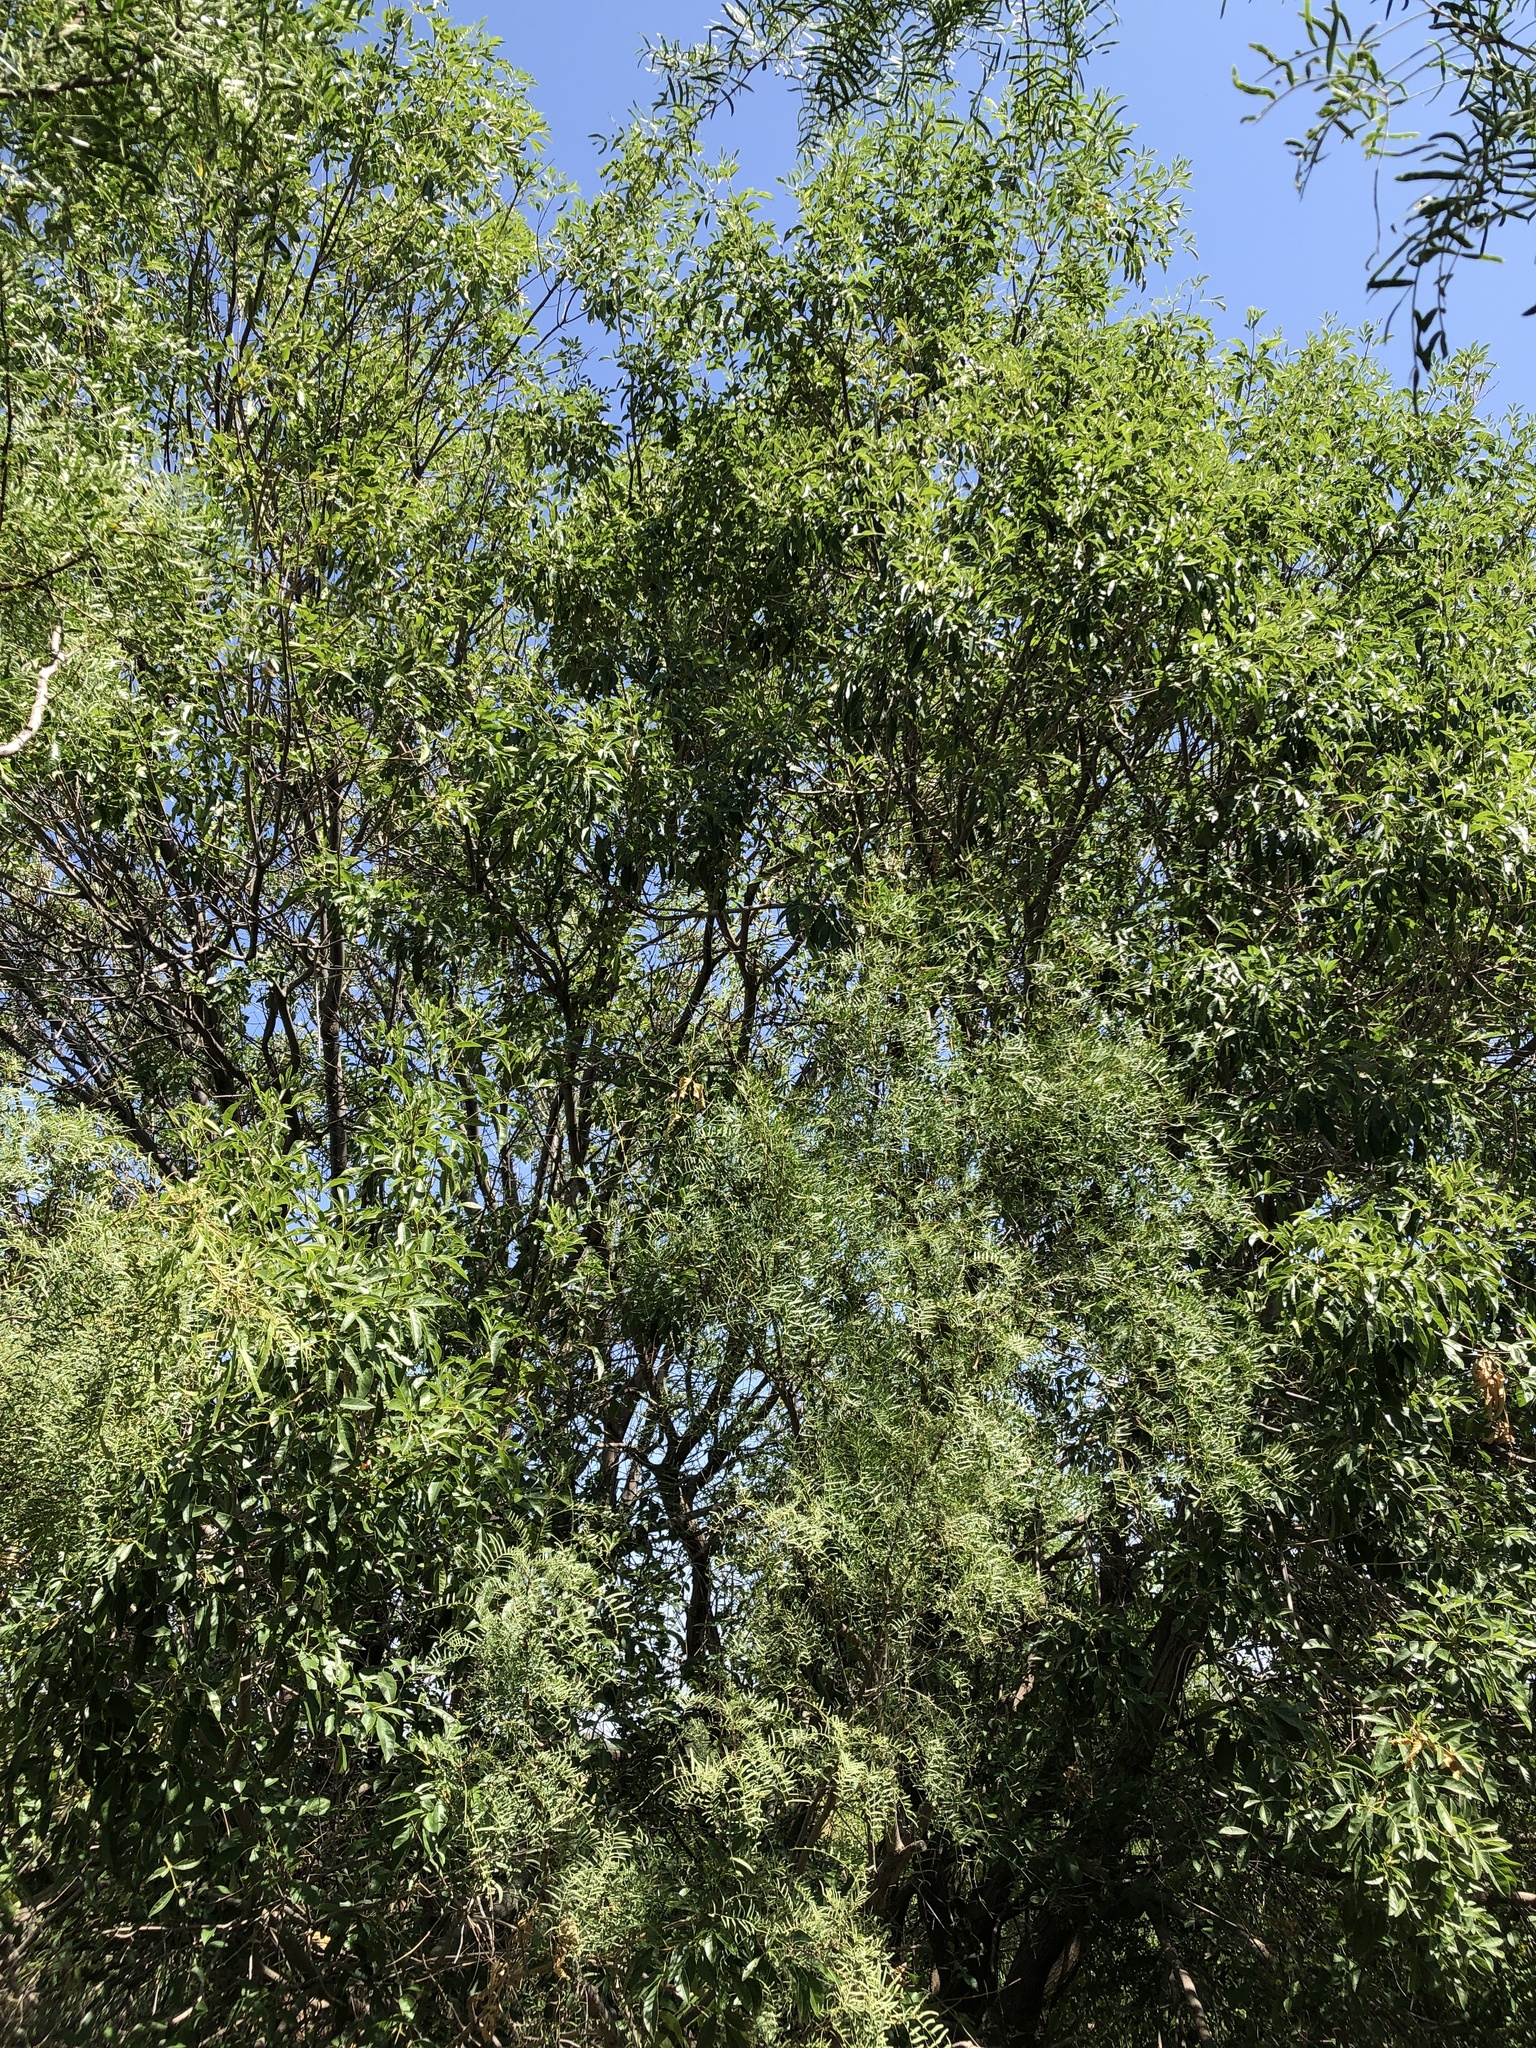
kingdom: Plantae
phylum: Tracheophyta
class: Magnoliopsida
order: Lamiales
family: Oleaceae
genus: Fraxinus
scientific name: Fraxinus velutina
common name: Arizon ash
